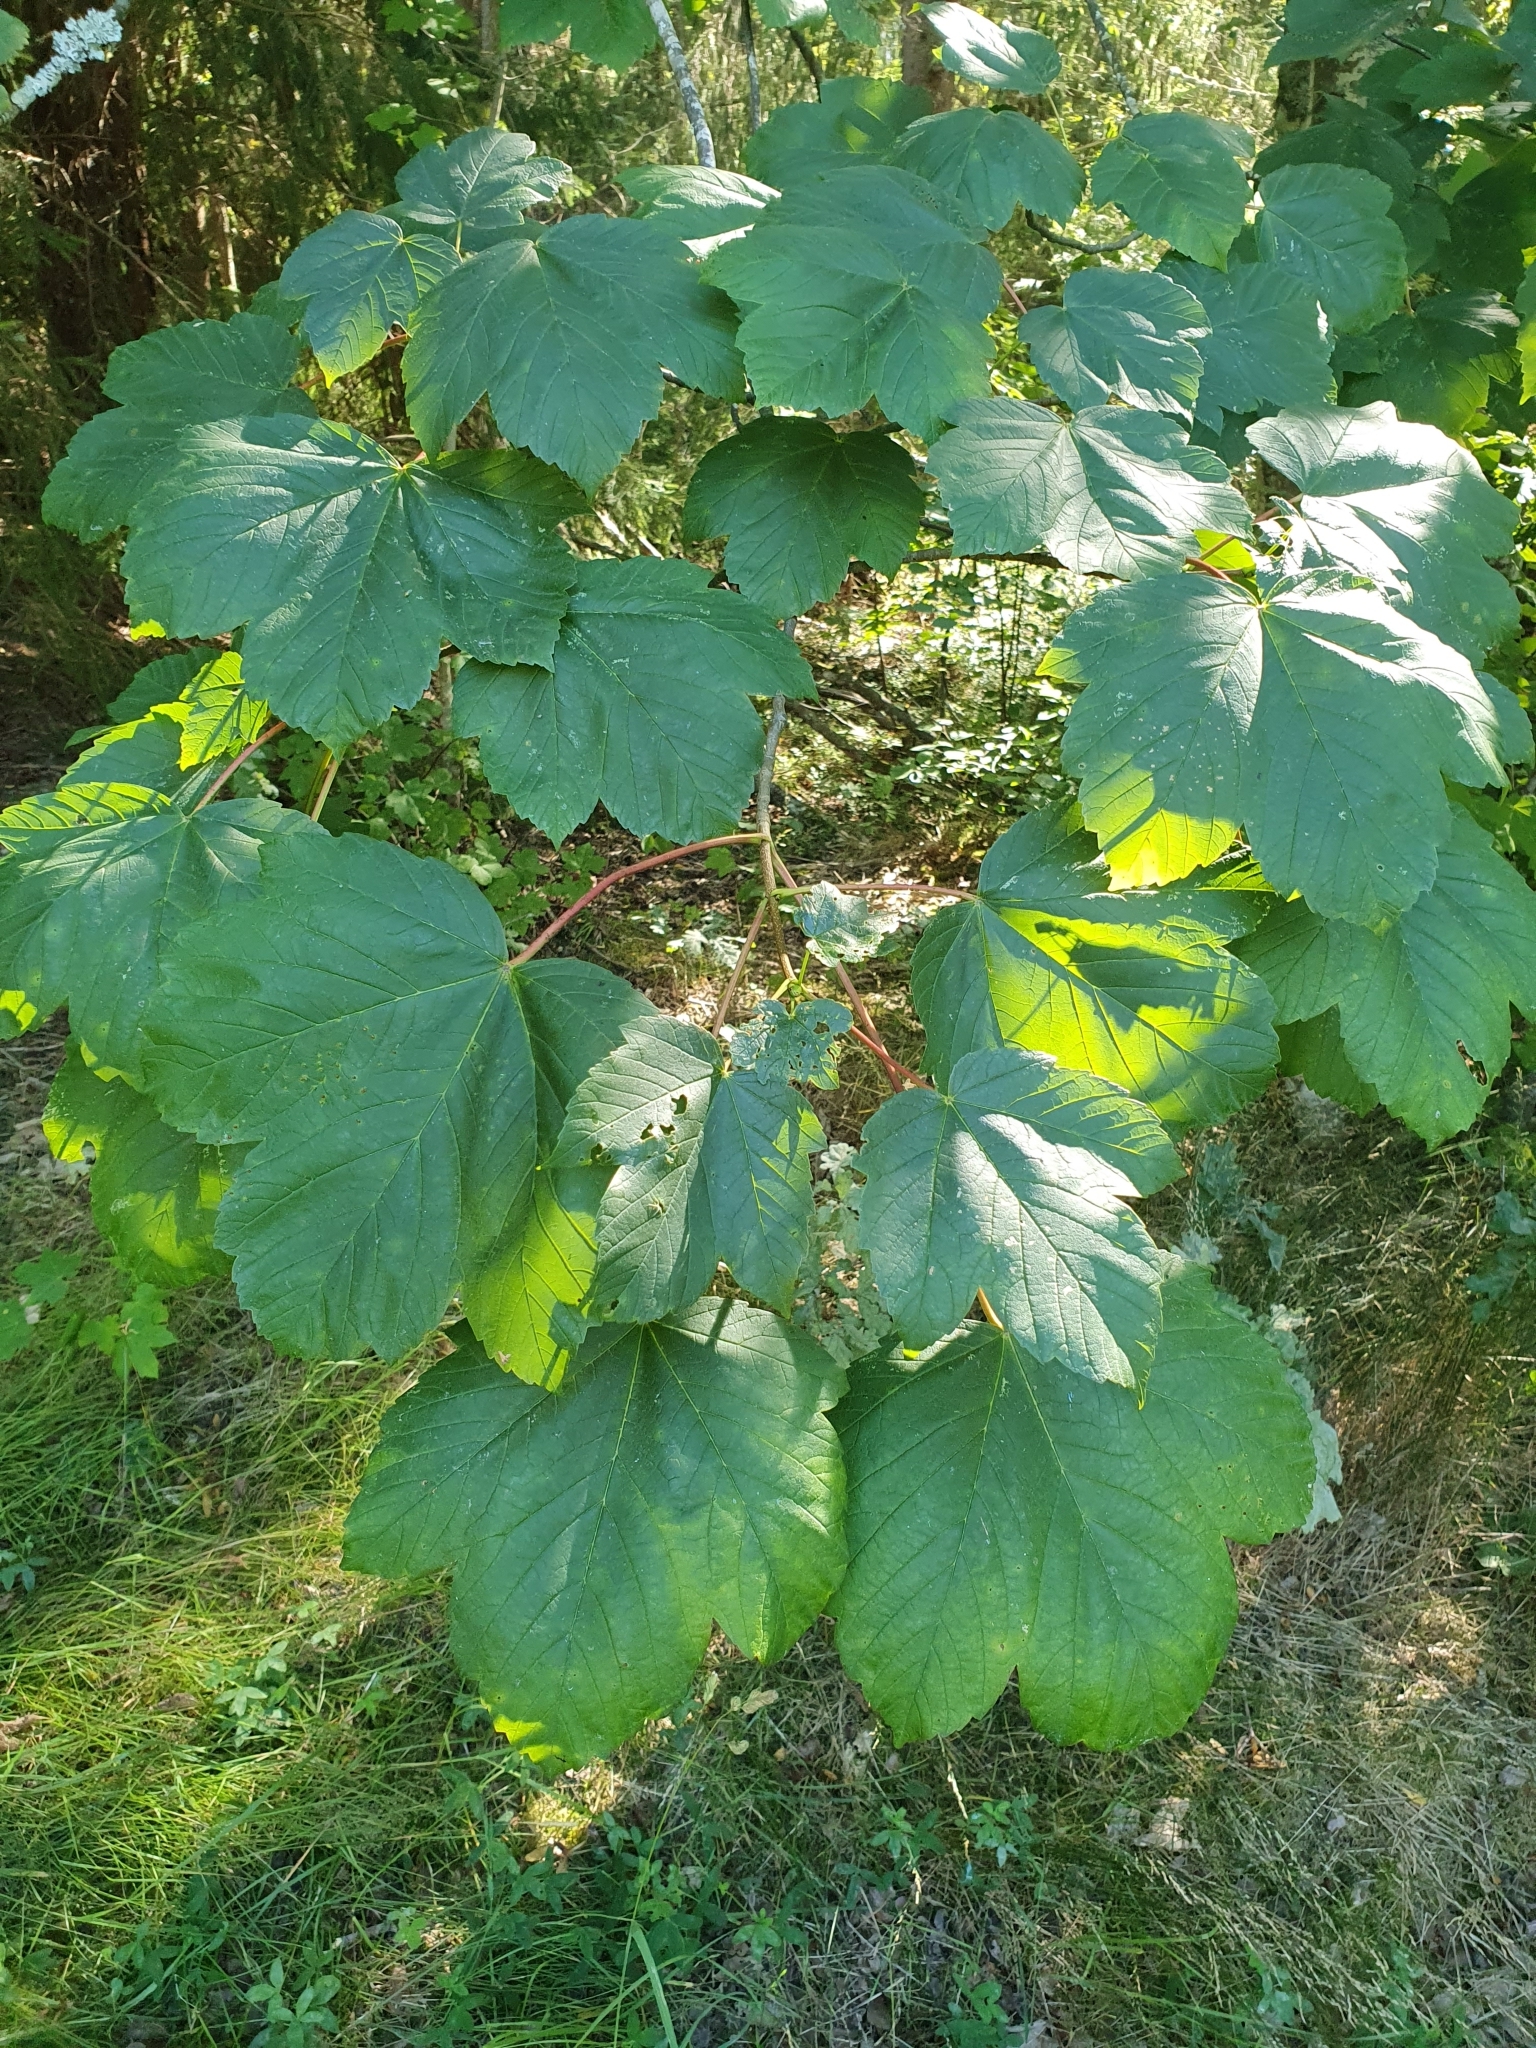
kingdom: Plantae
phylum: Tracheophyta
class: Magnoliopsida
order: Sapindales
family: Sapindaceae
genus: Acer
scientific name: Acer pseudoplatanus
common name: Sycamore
